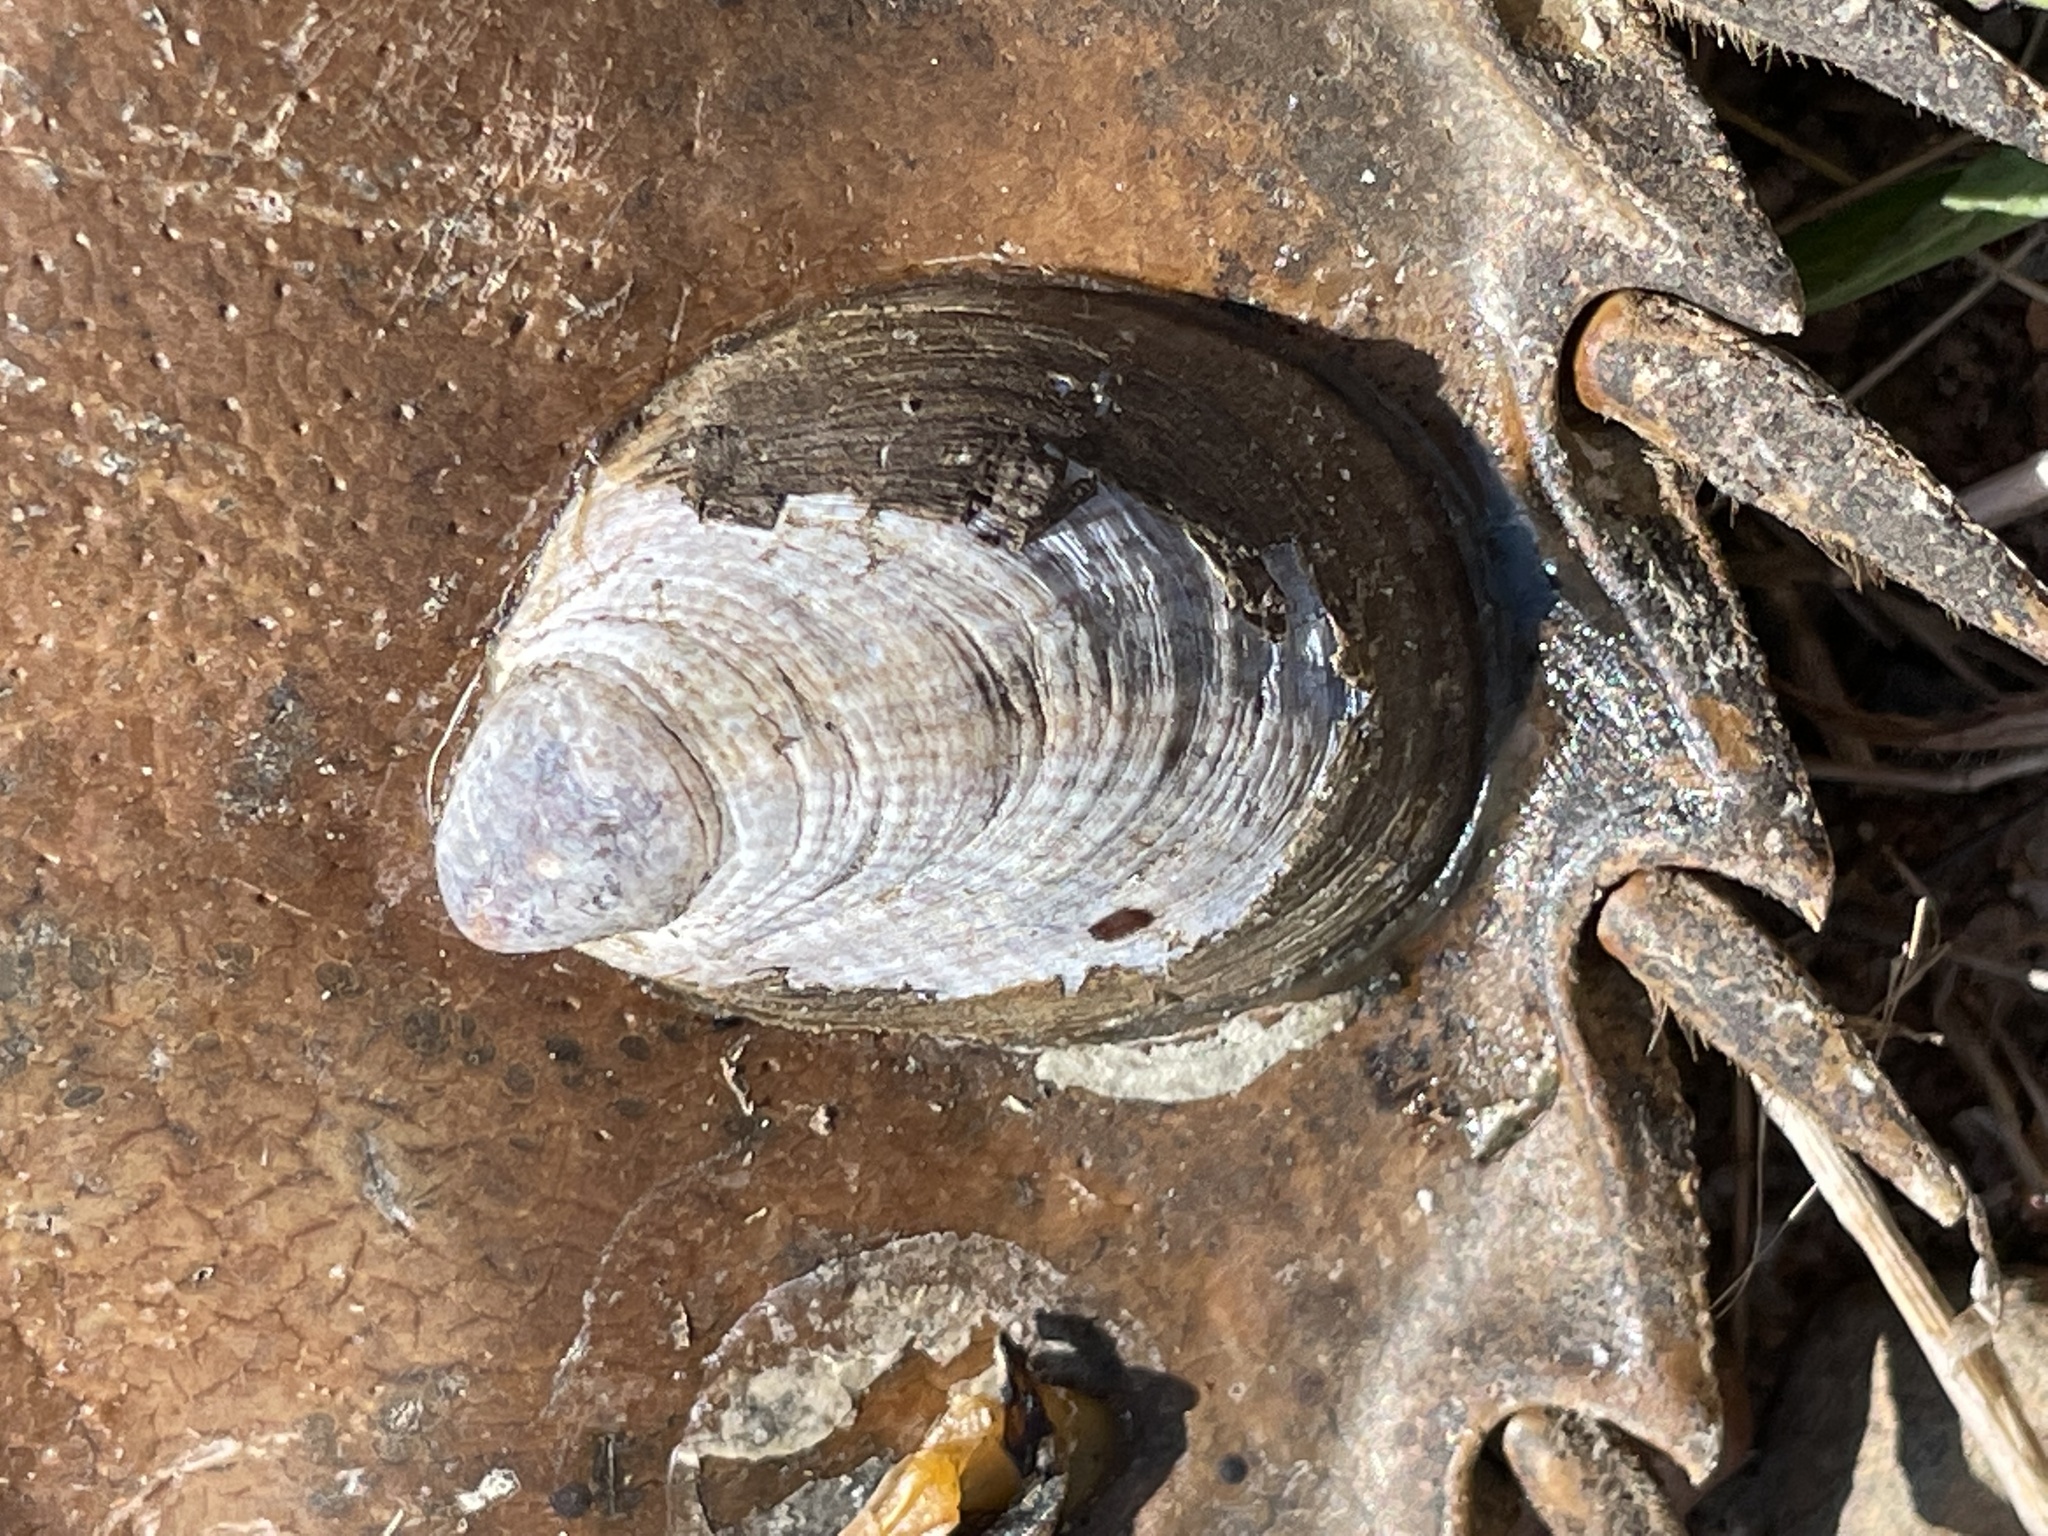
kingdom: Animalia
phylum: Mollusca
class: Gastropoda
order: Littorinimorpha
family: Calyptraeidae
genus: Crepidula
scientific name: Crepidula fornicata
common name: Slipper limpet
